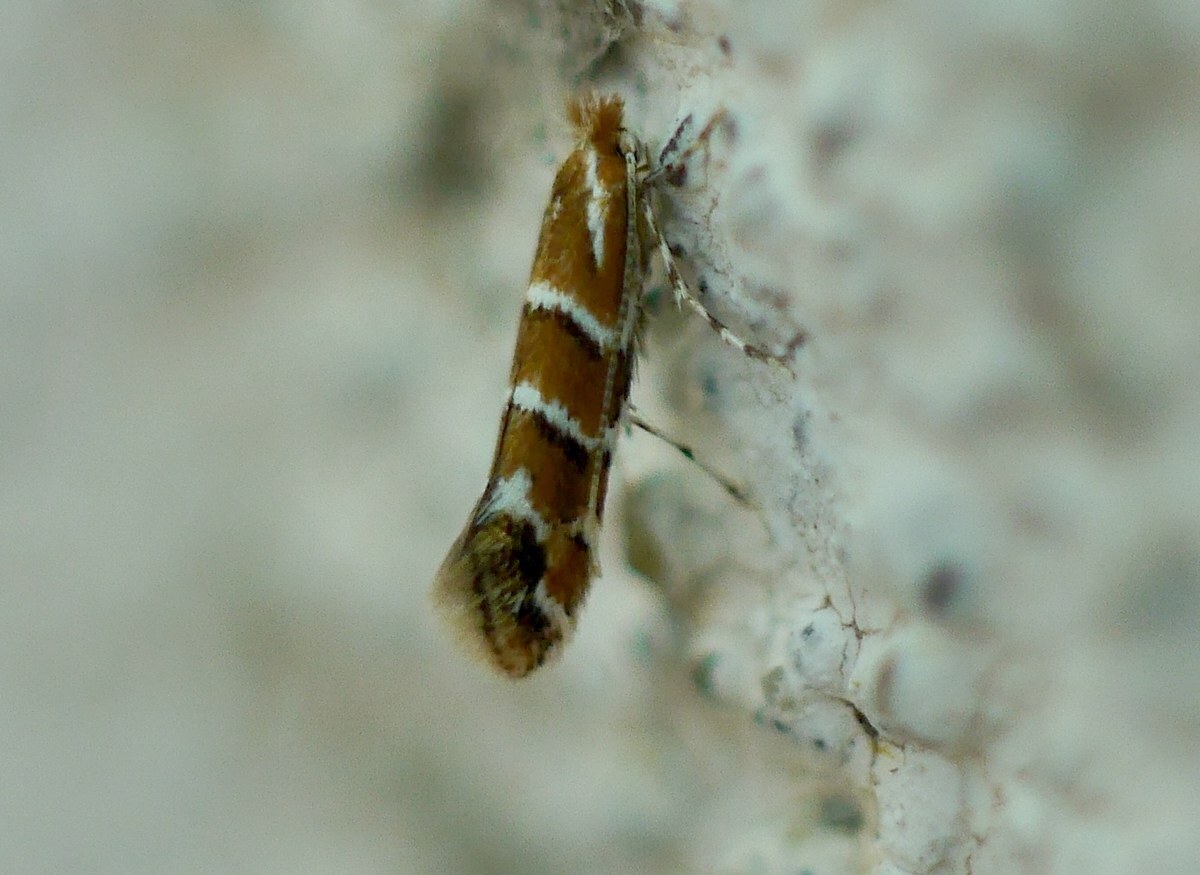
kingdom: Animalia
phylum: Arthropoda
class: Insecta
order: Lepidoptera
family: Gracillariidae
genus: Cameraria
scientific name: Cameraria ohridella
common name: Horse-chestnut leaf-miner
